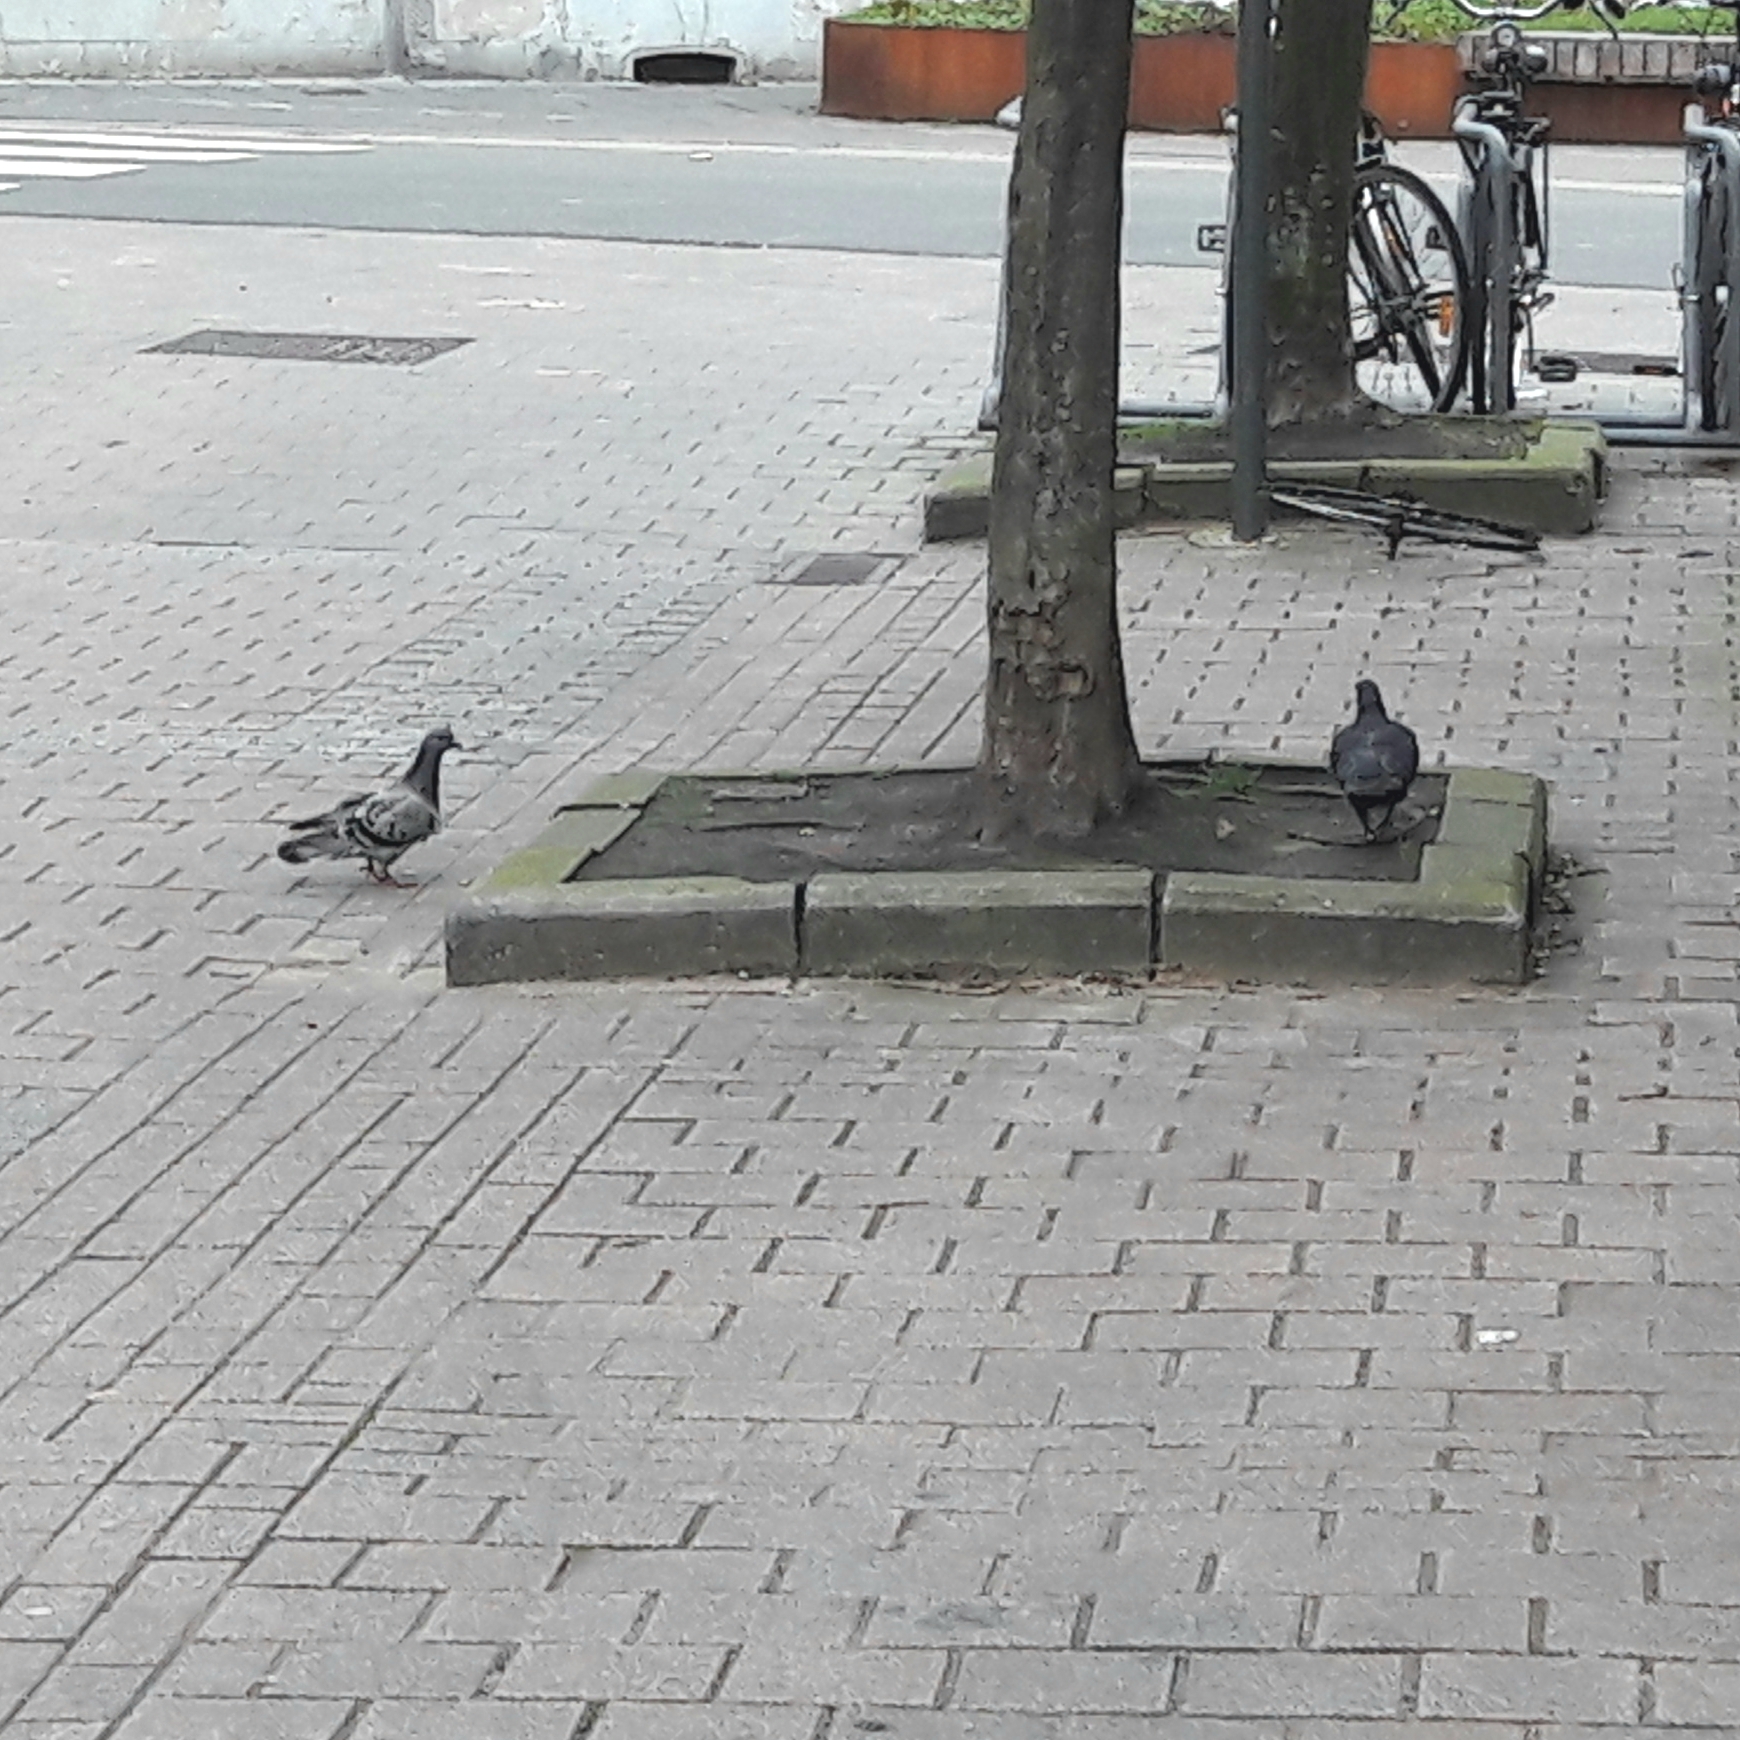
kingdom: Animalia
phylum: Chordata
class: Aves
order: Columbiformes
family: Columbidae
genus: Columba
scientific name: Columba livia
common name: Rock pigeon
